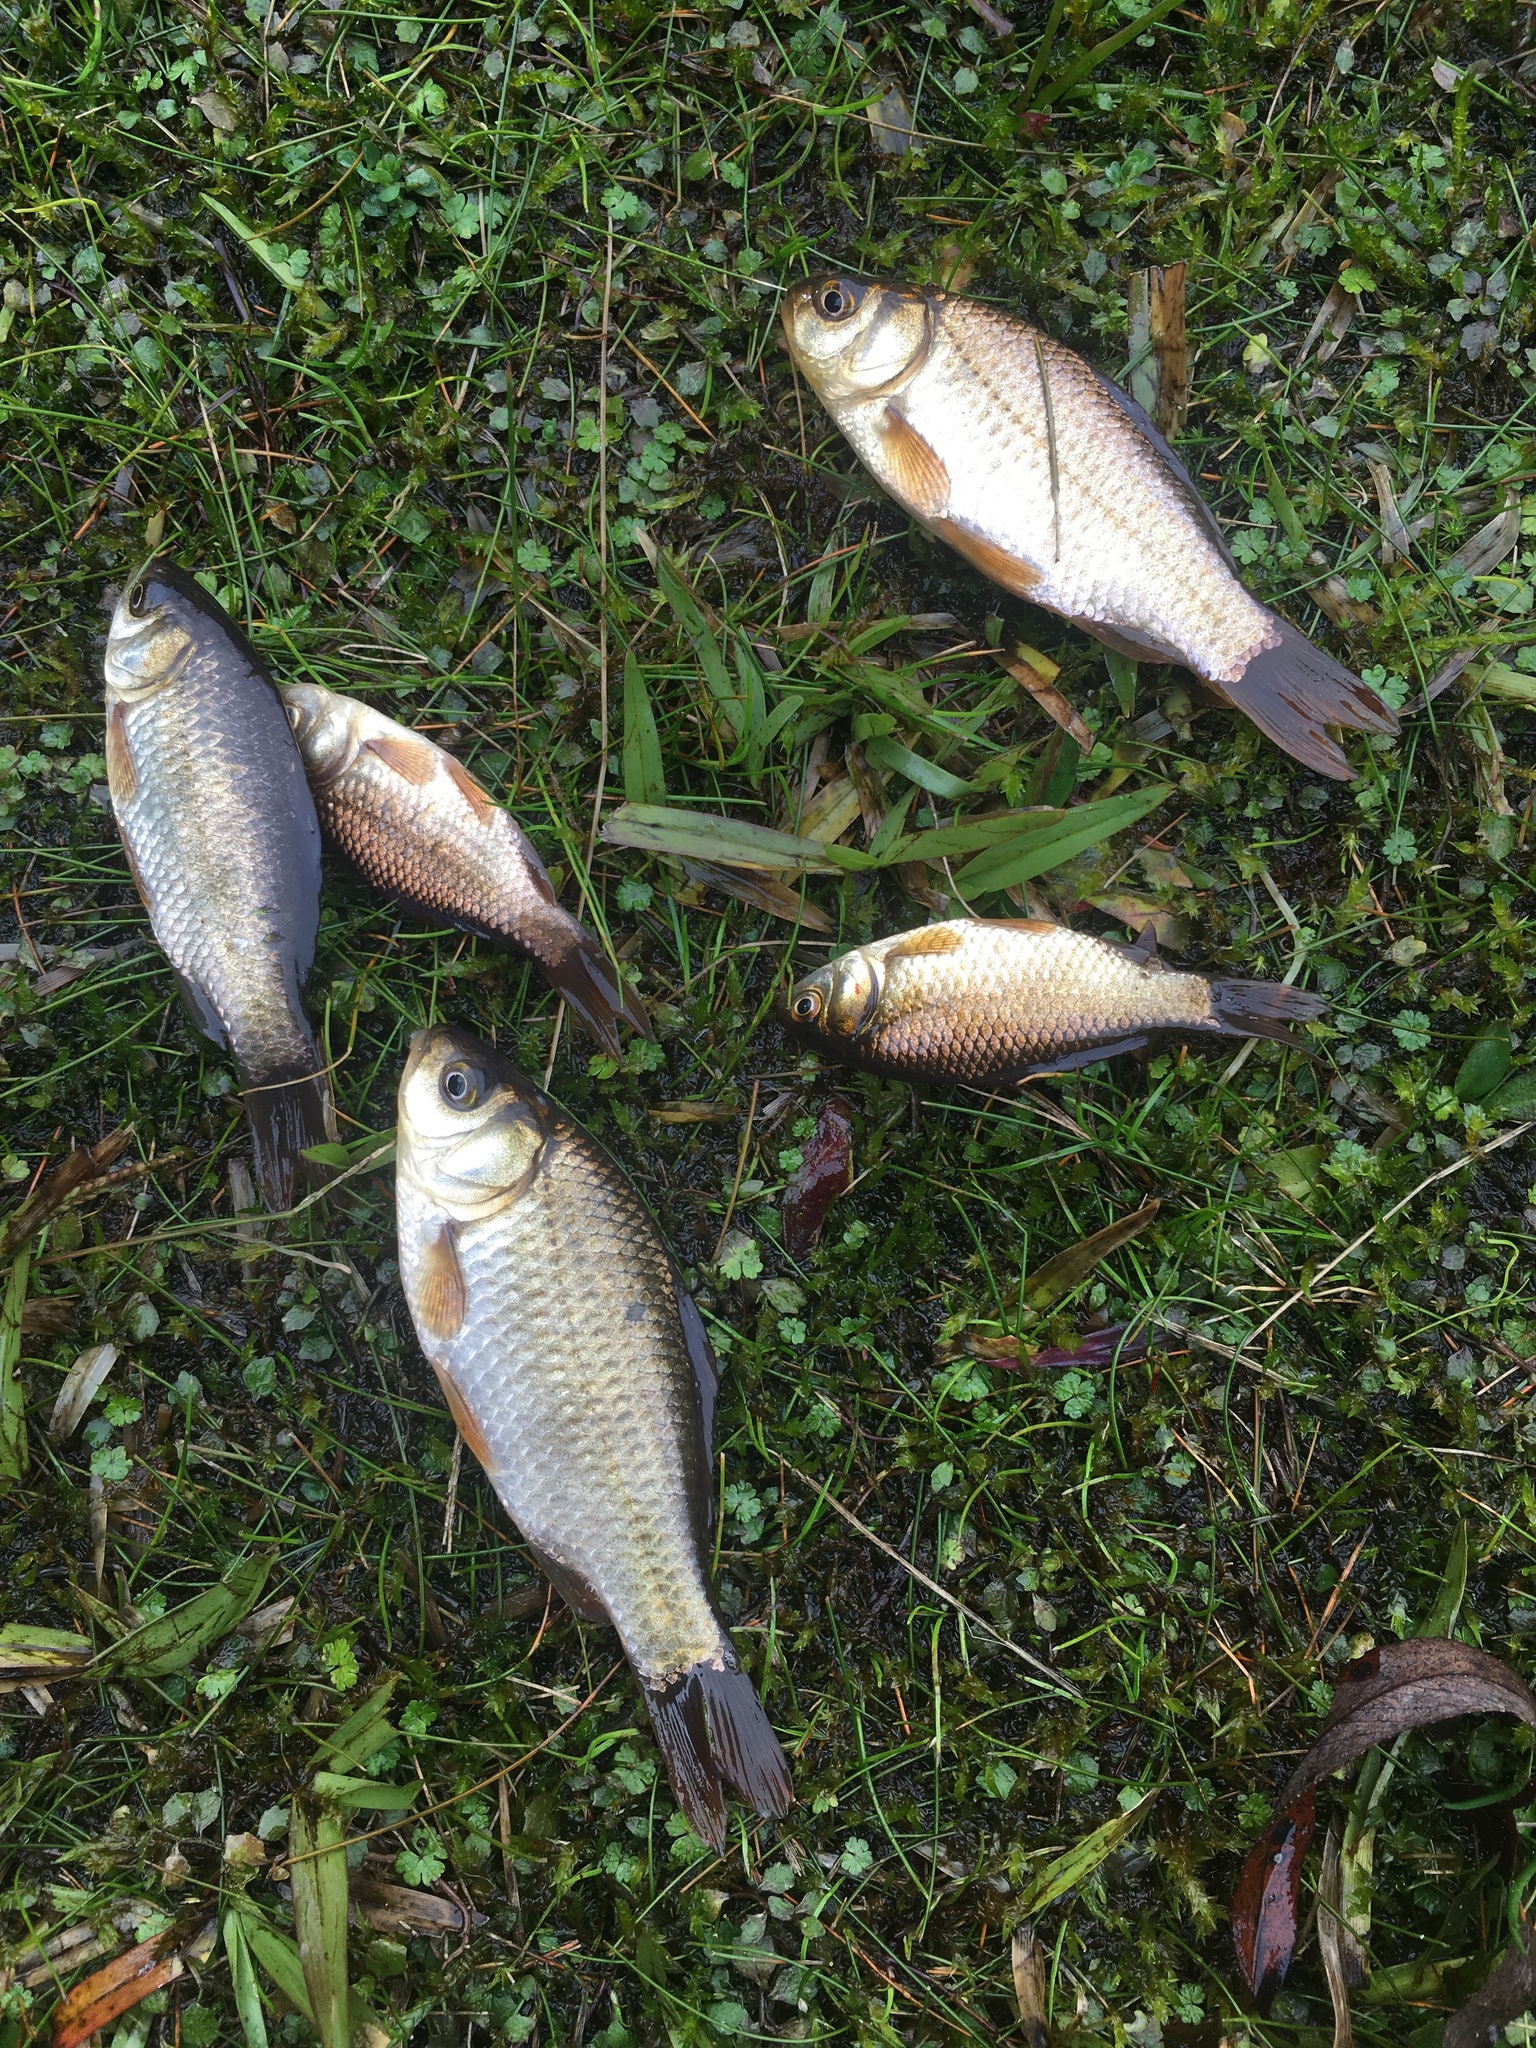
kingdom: Animalia
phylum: Chordata
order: Cypriniformes
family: Cyprinidae
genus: Carassius
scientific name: Carassius auratus
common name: Goldfish
